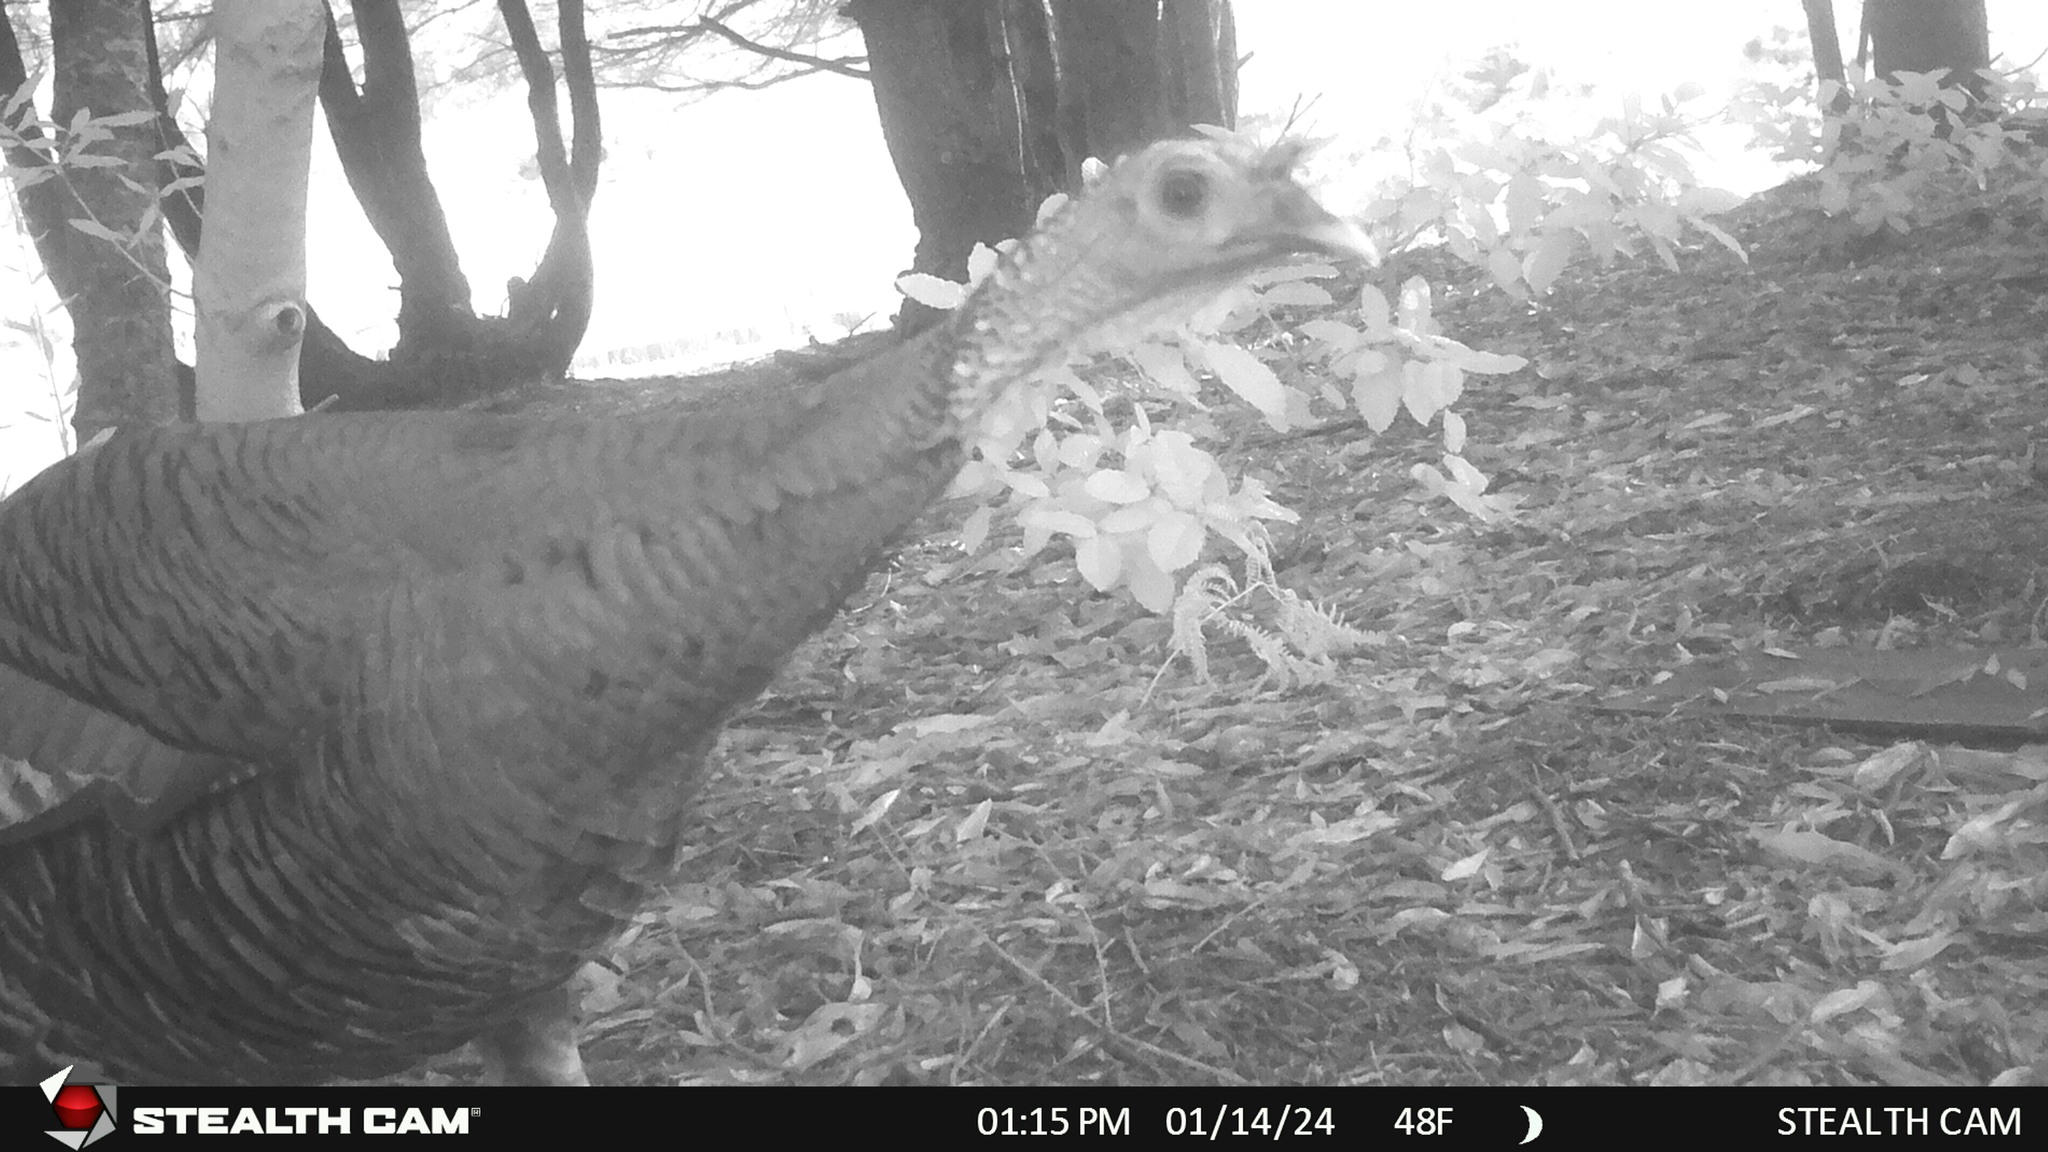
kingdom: Animalia
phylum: Chordata
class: Aves
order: Galliformes
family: Phasianidae
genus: Meleagris
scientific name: Meleagris gallopavo
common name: Wild turkey
